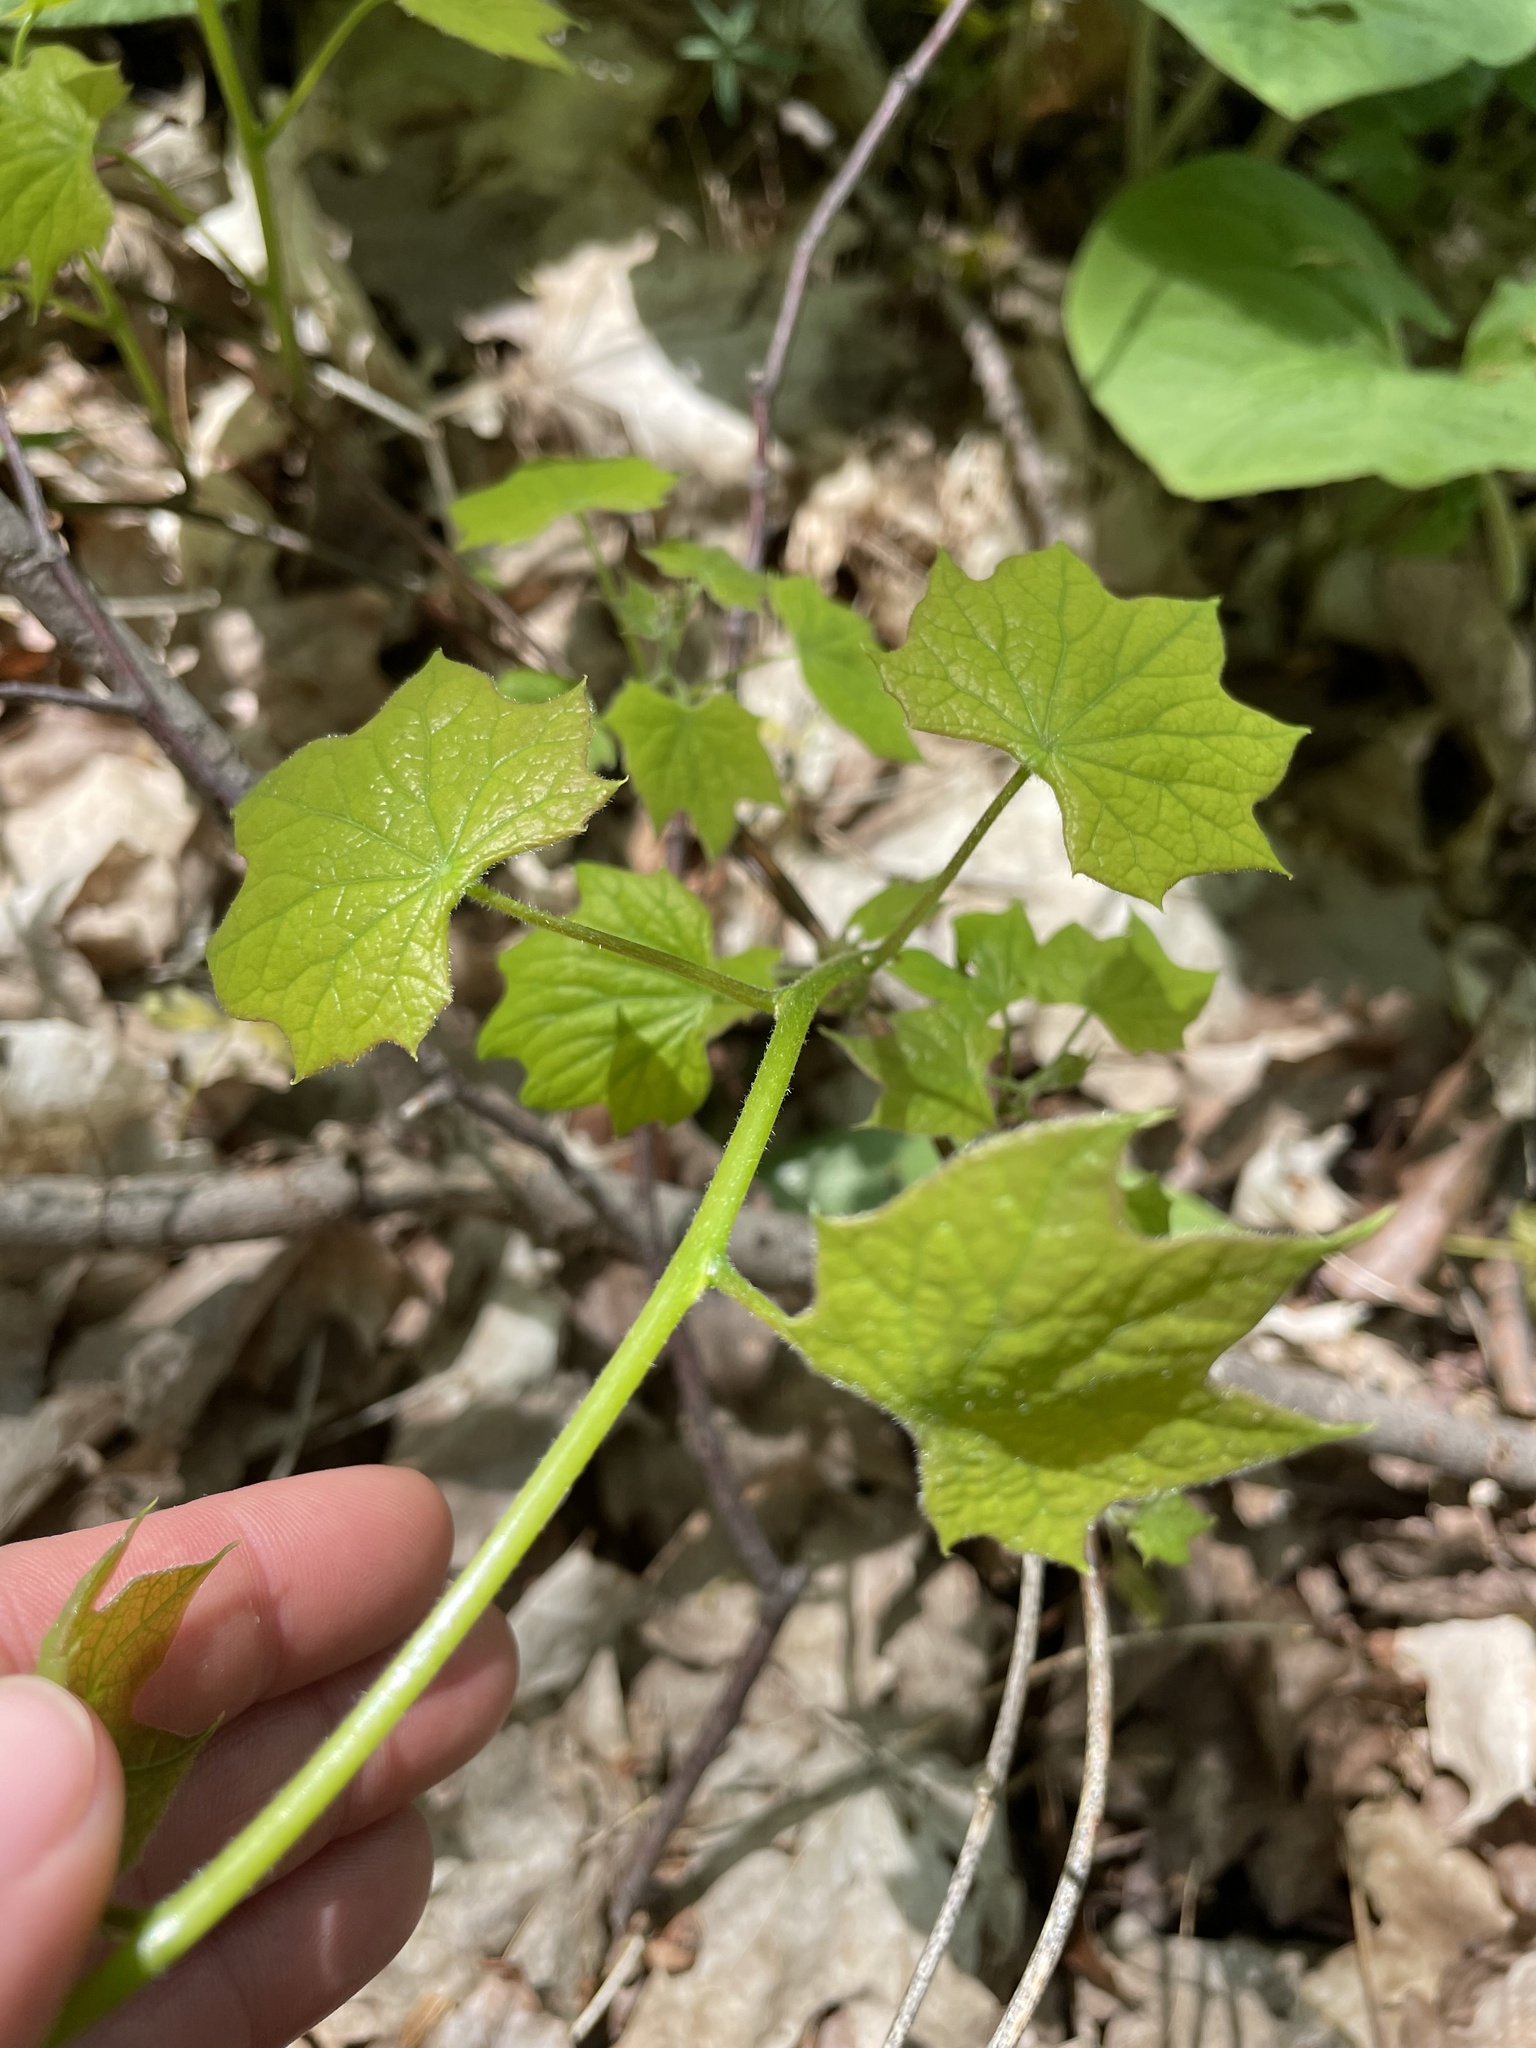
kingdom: Plantae
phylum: Tracheophyta
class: Magnoliopsida
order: Ranunculales
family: Menispermaceae
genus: Menispermum
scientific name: Menispermum canadense
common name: Moonseed
